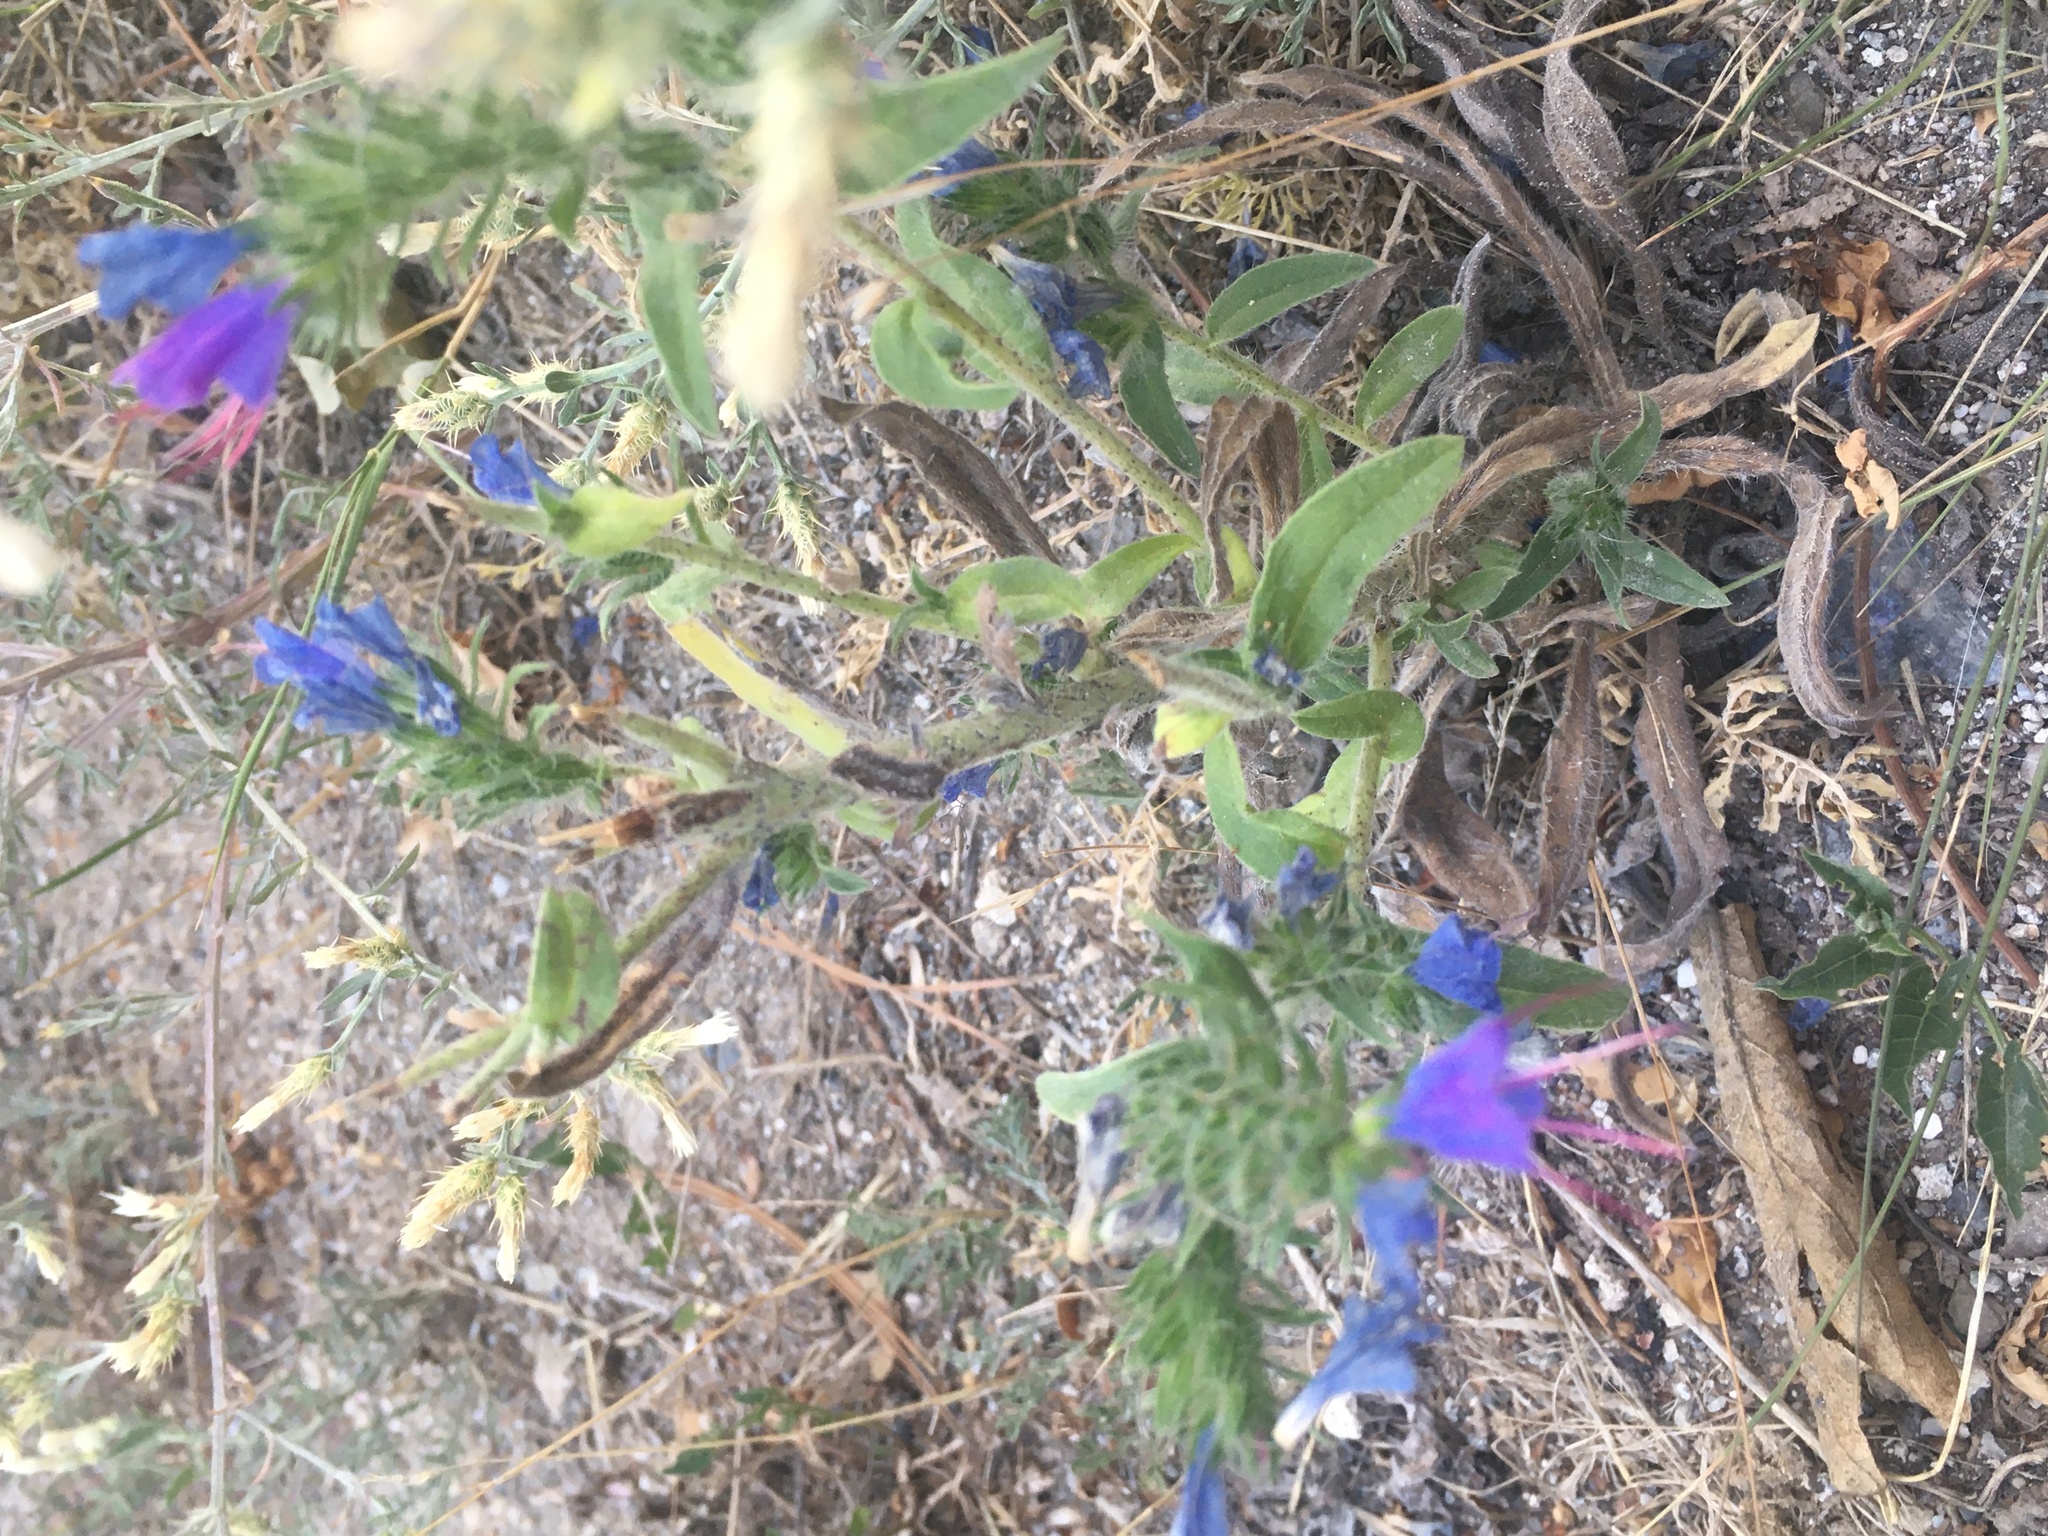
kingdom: Plantae
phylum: Tracheophyta
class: Magnoliopsida
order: Boraginales
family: Boraginaceae
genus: Echium
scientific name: Echium vulgare
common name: Common viper's bugloss
